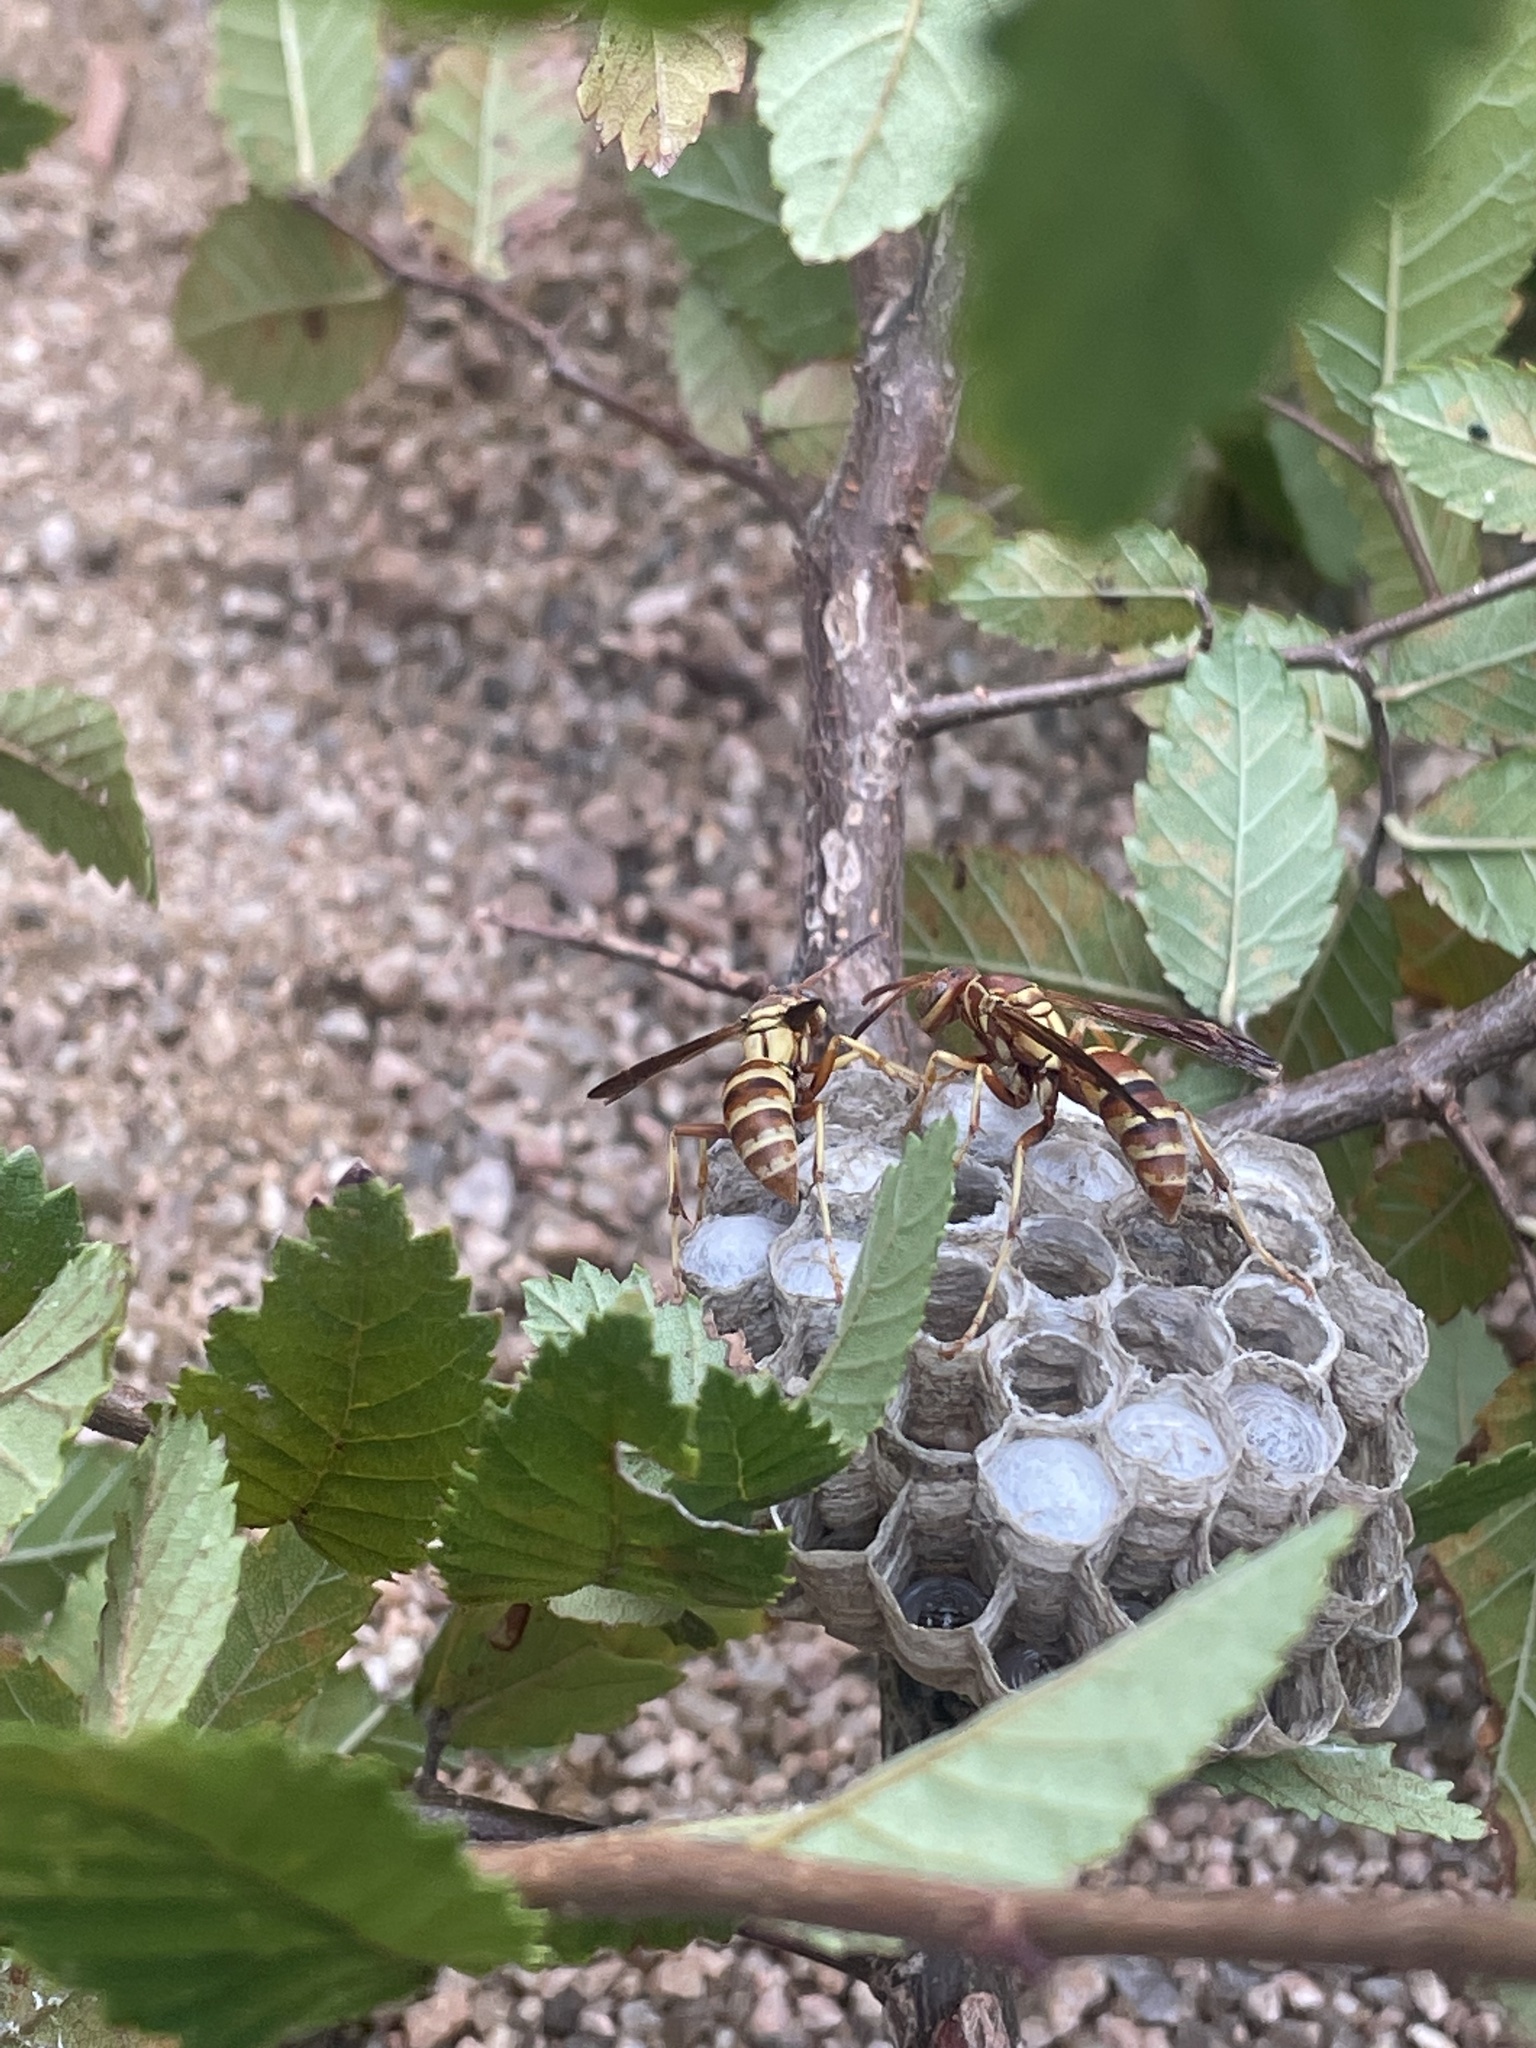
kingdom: Animalia
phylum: Arthropoda
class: Insecta
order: Hymenoptera
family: Eumenidae
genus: Polistes
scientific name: Polistes dorsalis
